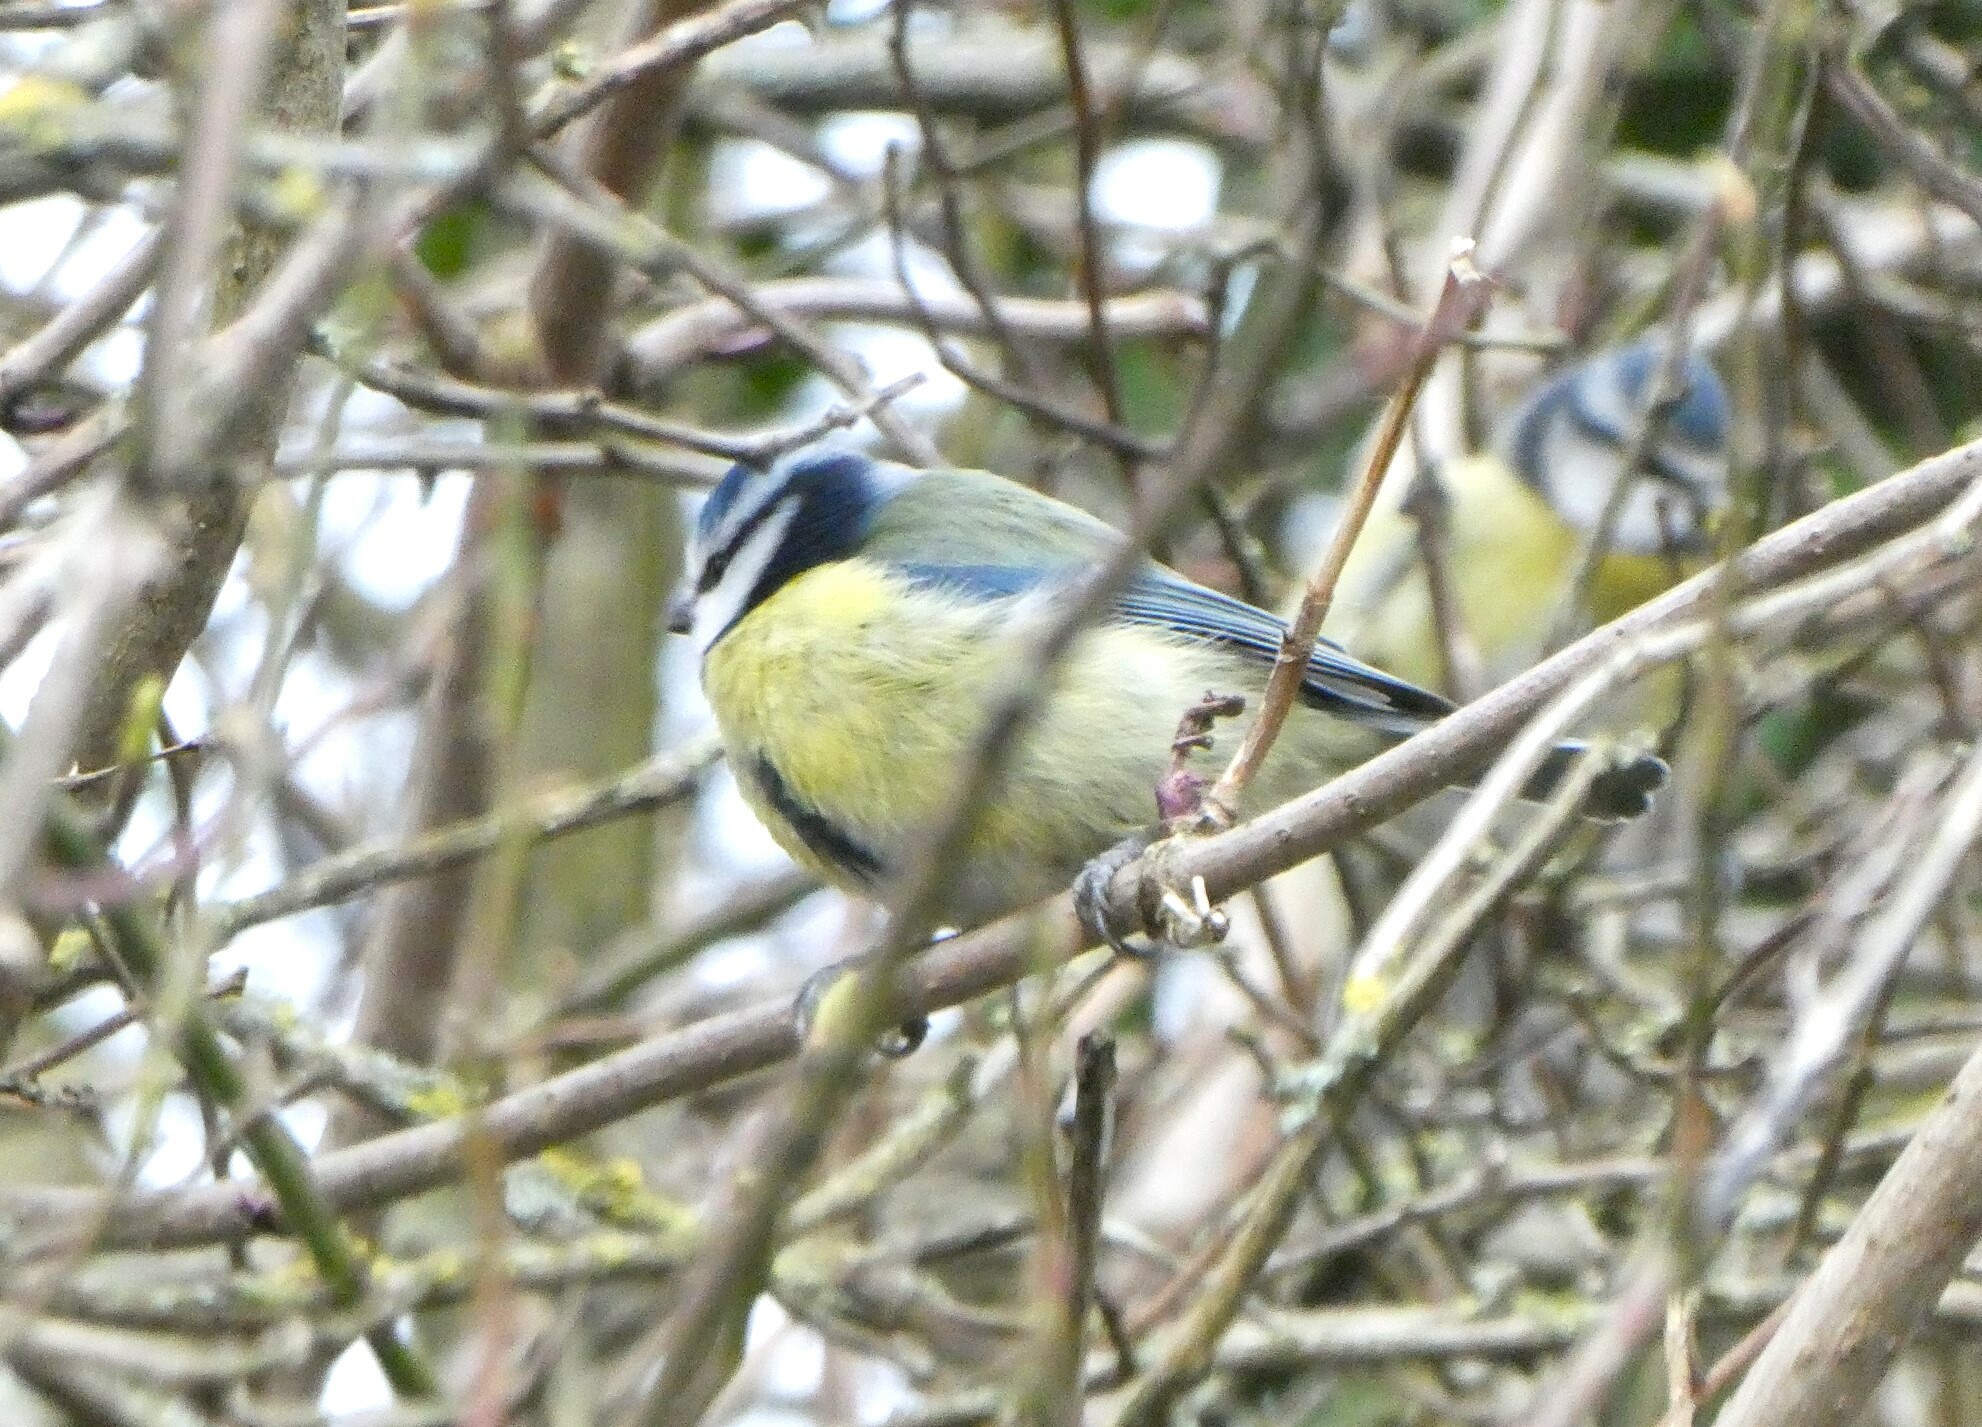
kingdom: Animalia
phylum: Chordata
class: Aves
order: Passeriformes
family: Paridae
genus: Cyanistes
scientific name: Cyanistes caeruleus
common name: Eurasian blue tit
